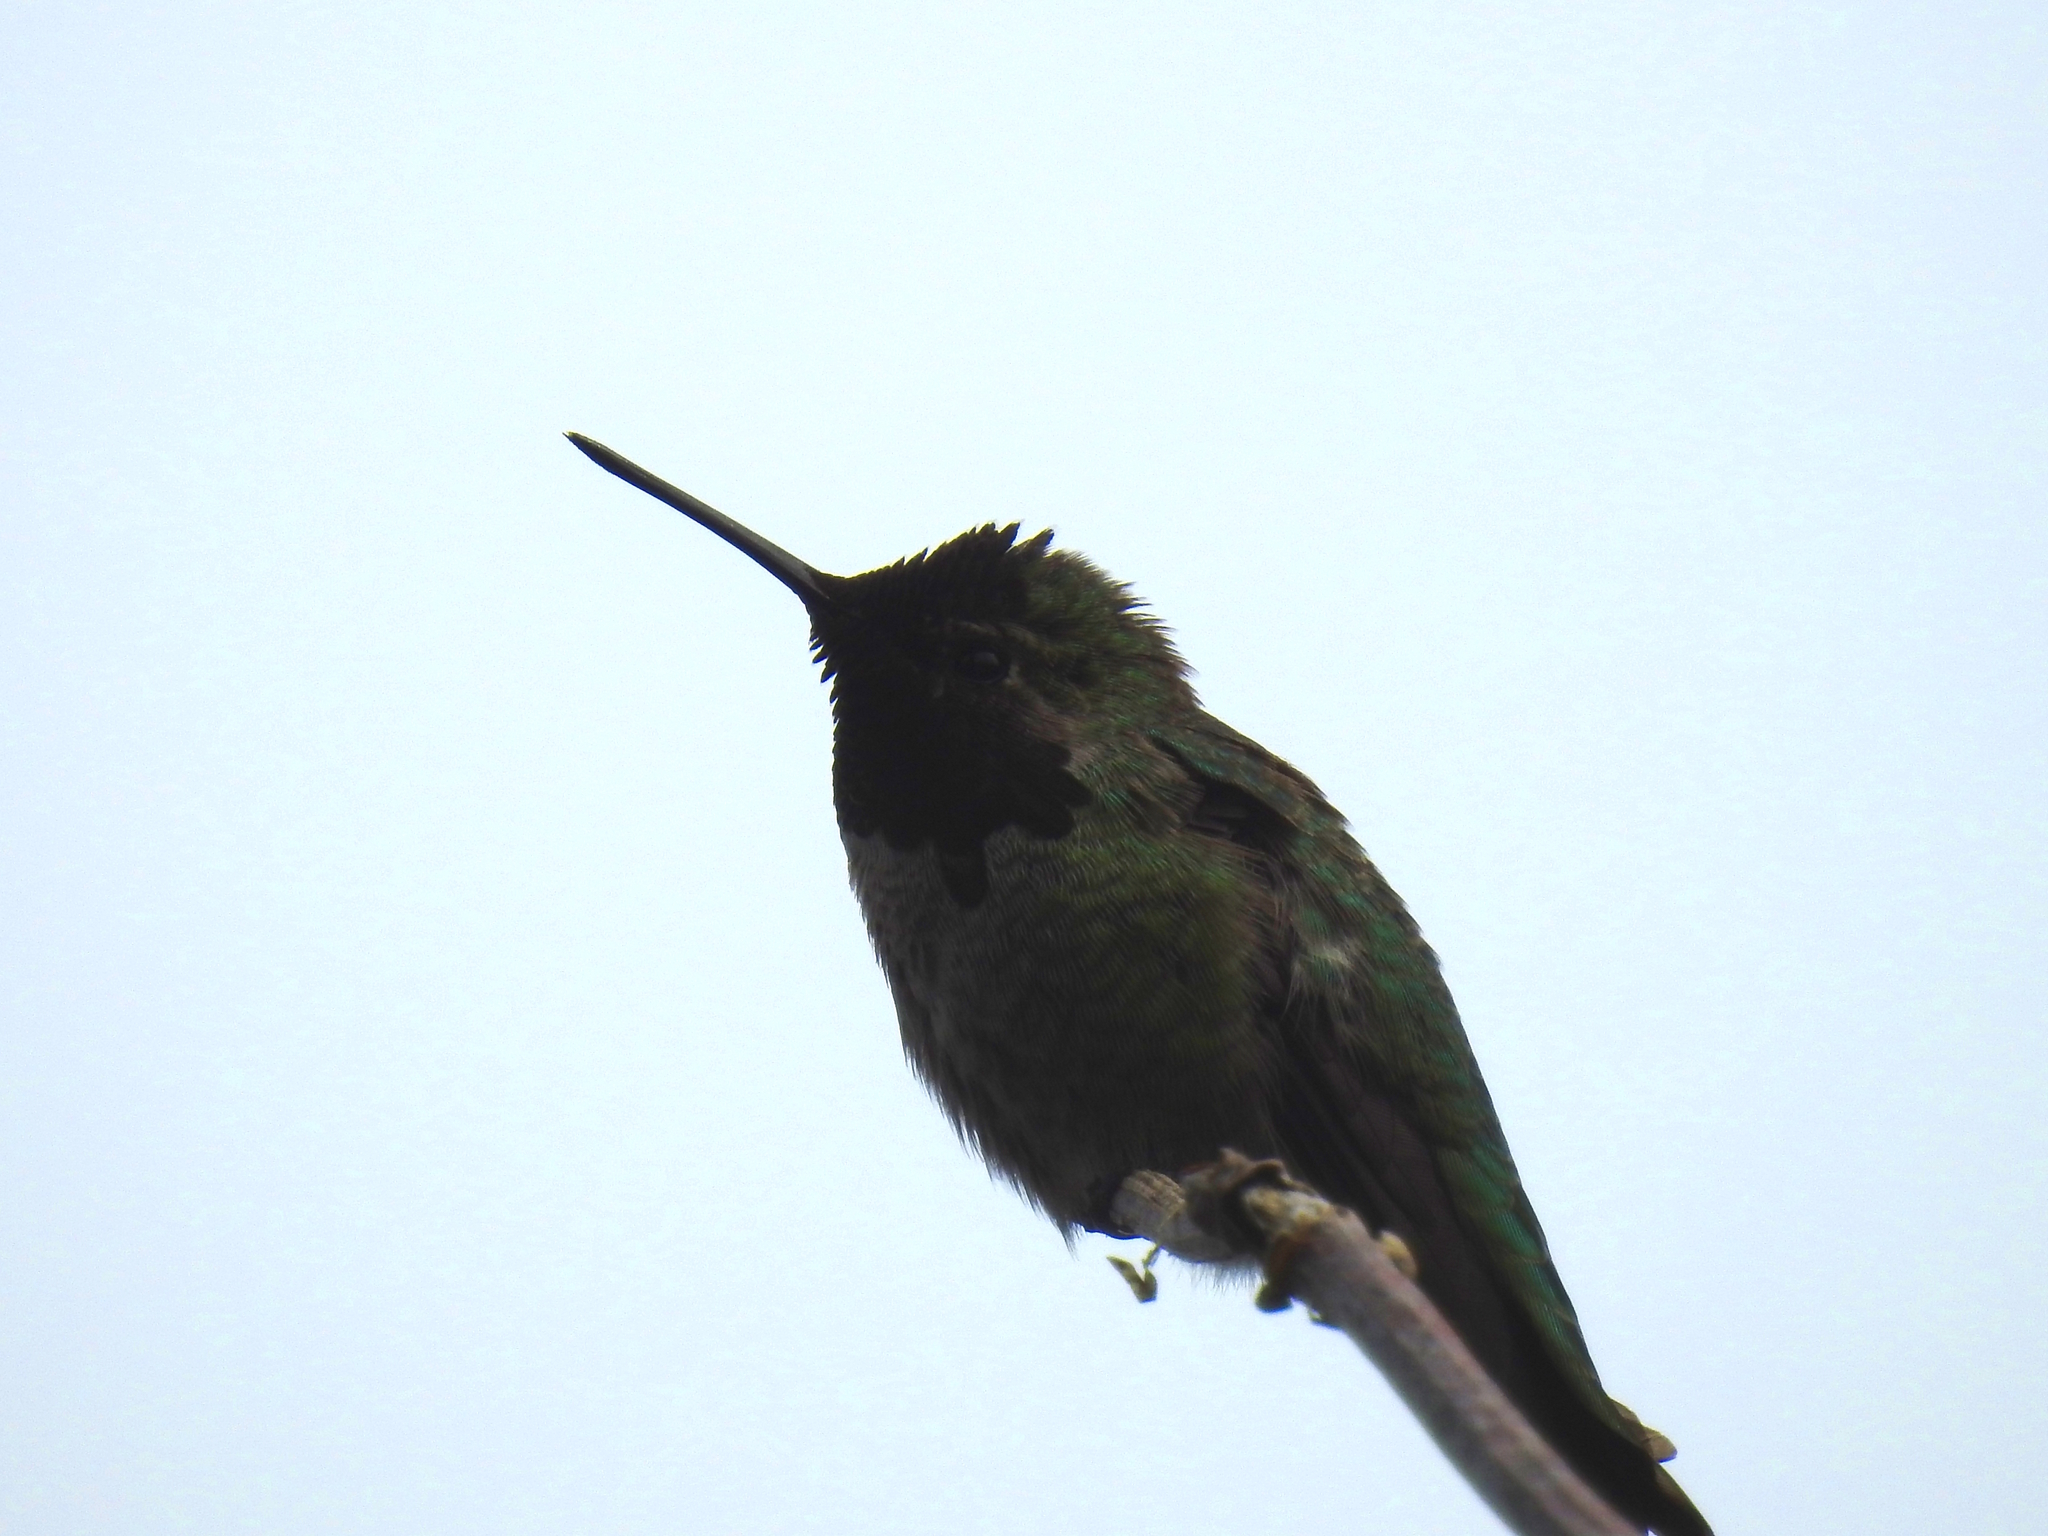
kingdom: Animalia
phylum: Chordata
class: Aves
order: Apodiformes
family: Trochilidae
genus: Calypte
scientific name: Calypte anna
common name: Anna's hummingbird
